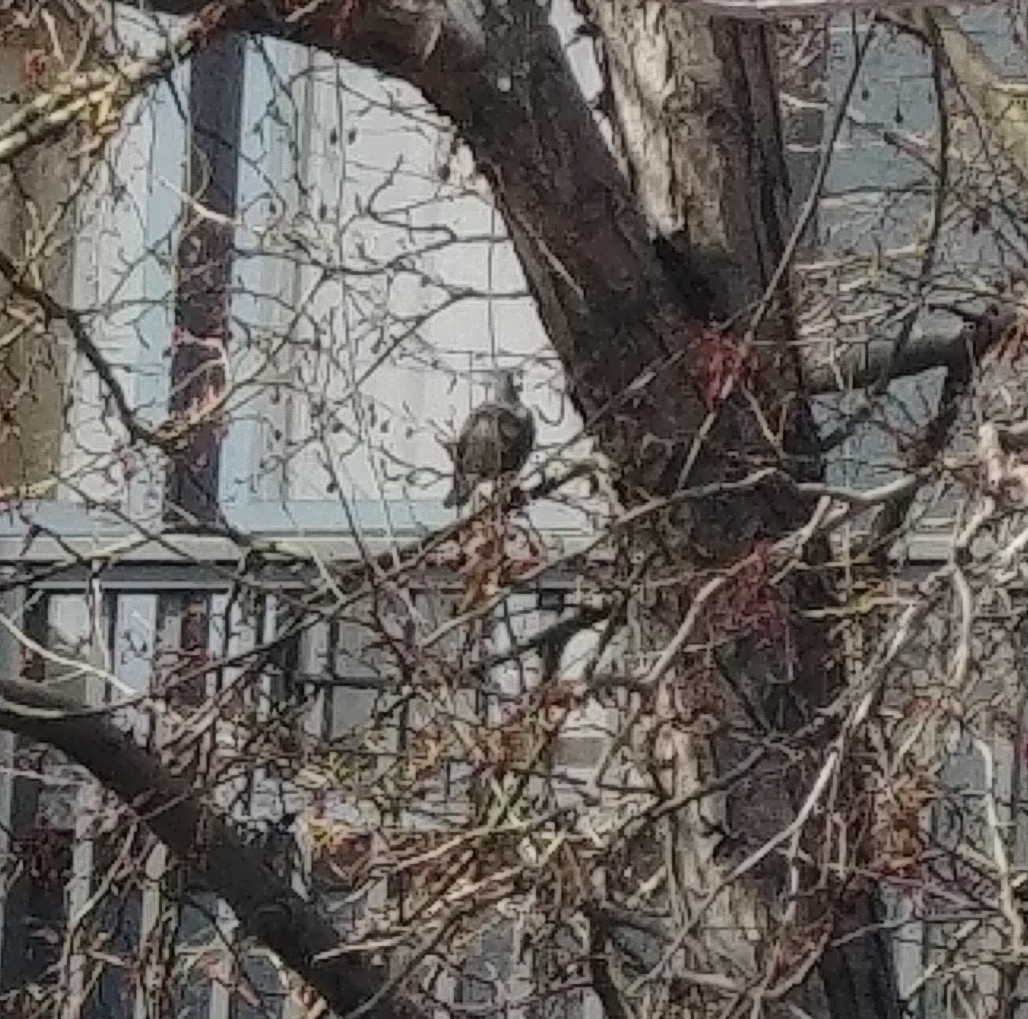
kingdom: Animalia
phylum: Chordata
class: Aves
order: Passeriformes
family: Turdidae
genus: Turdus
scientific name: Turdus migratorius
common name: American robin
